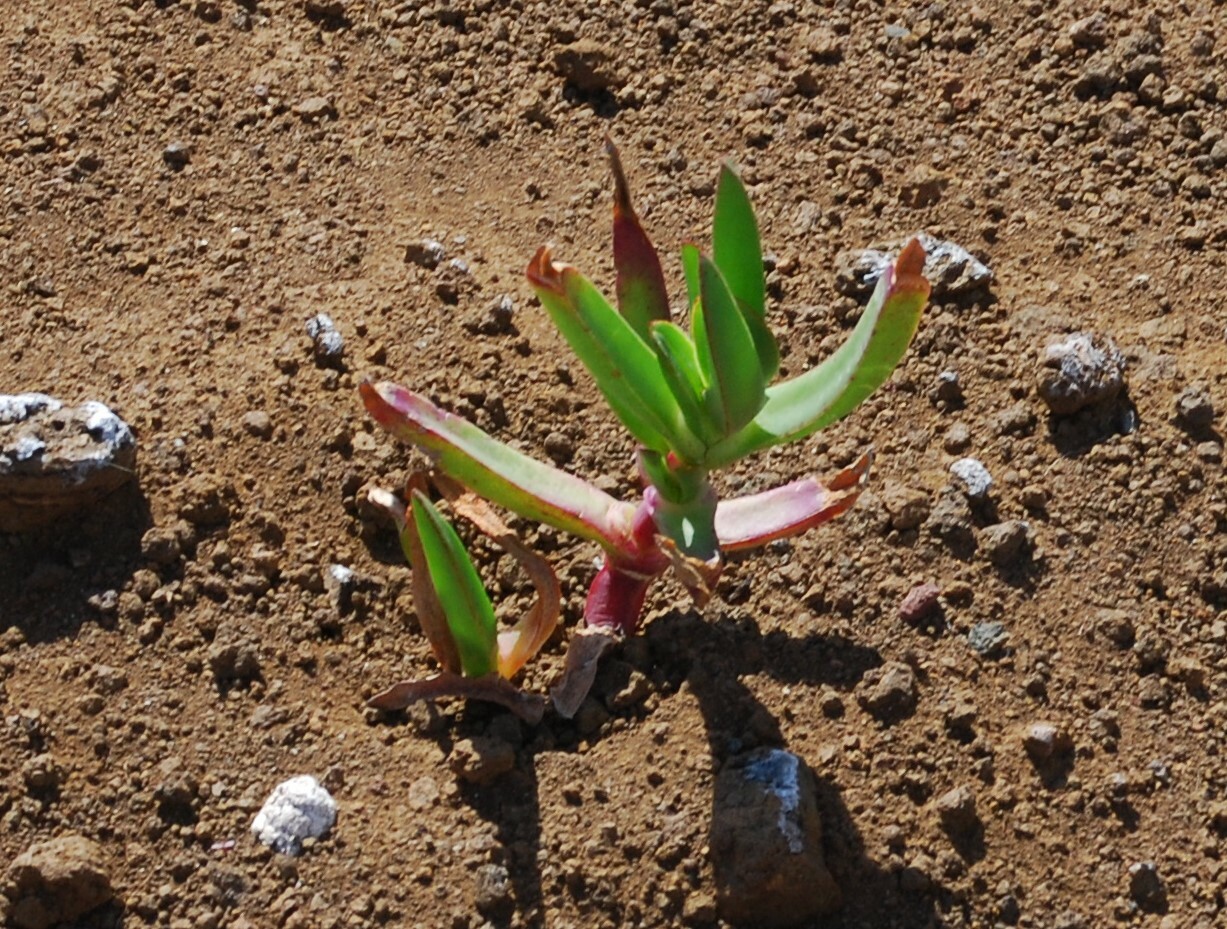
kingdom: Plantae
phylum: Tracheophyta
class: Magnoliopsida
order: Caryophyllales
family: Aizoaceae
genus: Carpobrotus
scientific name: Carpobrotus edulis
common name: Hottentot-fig
